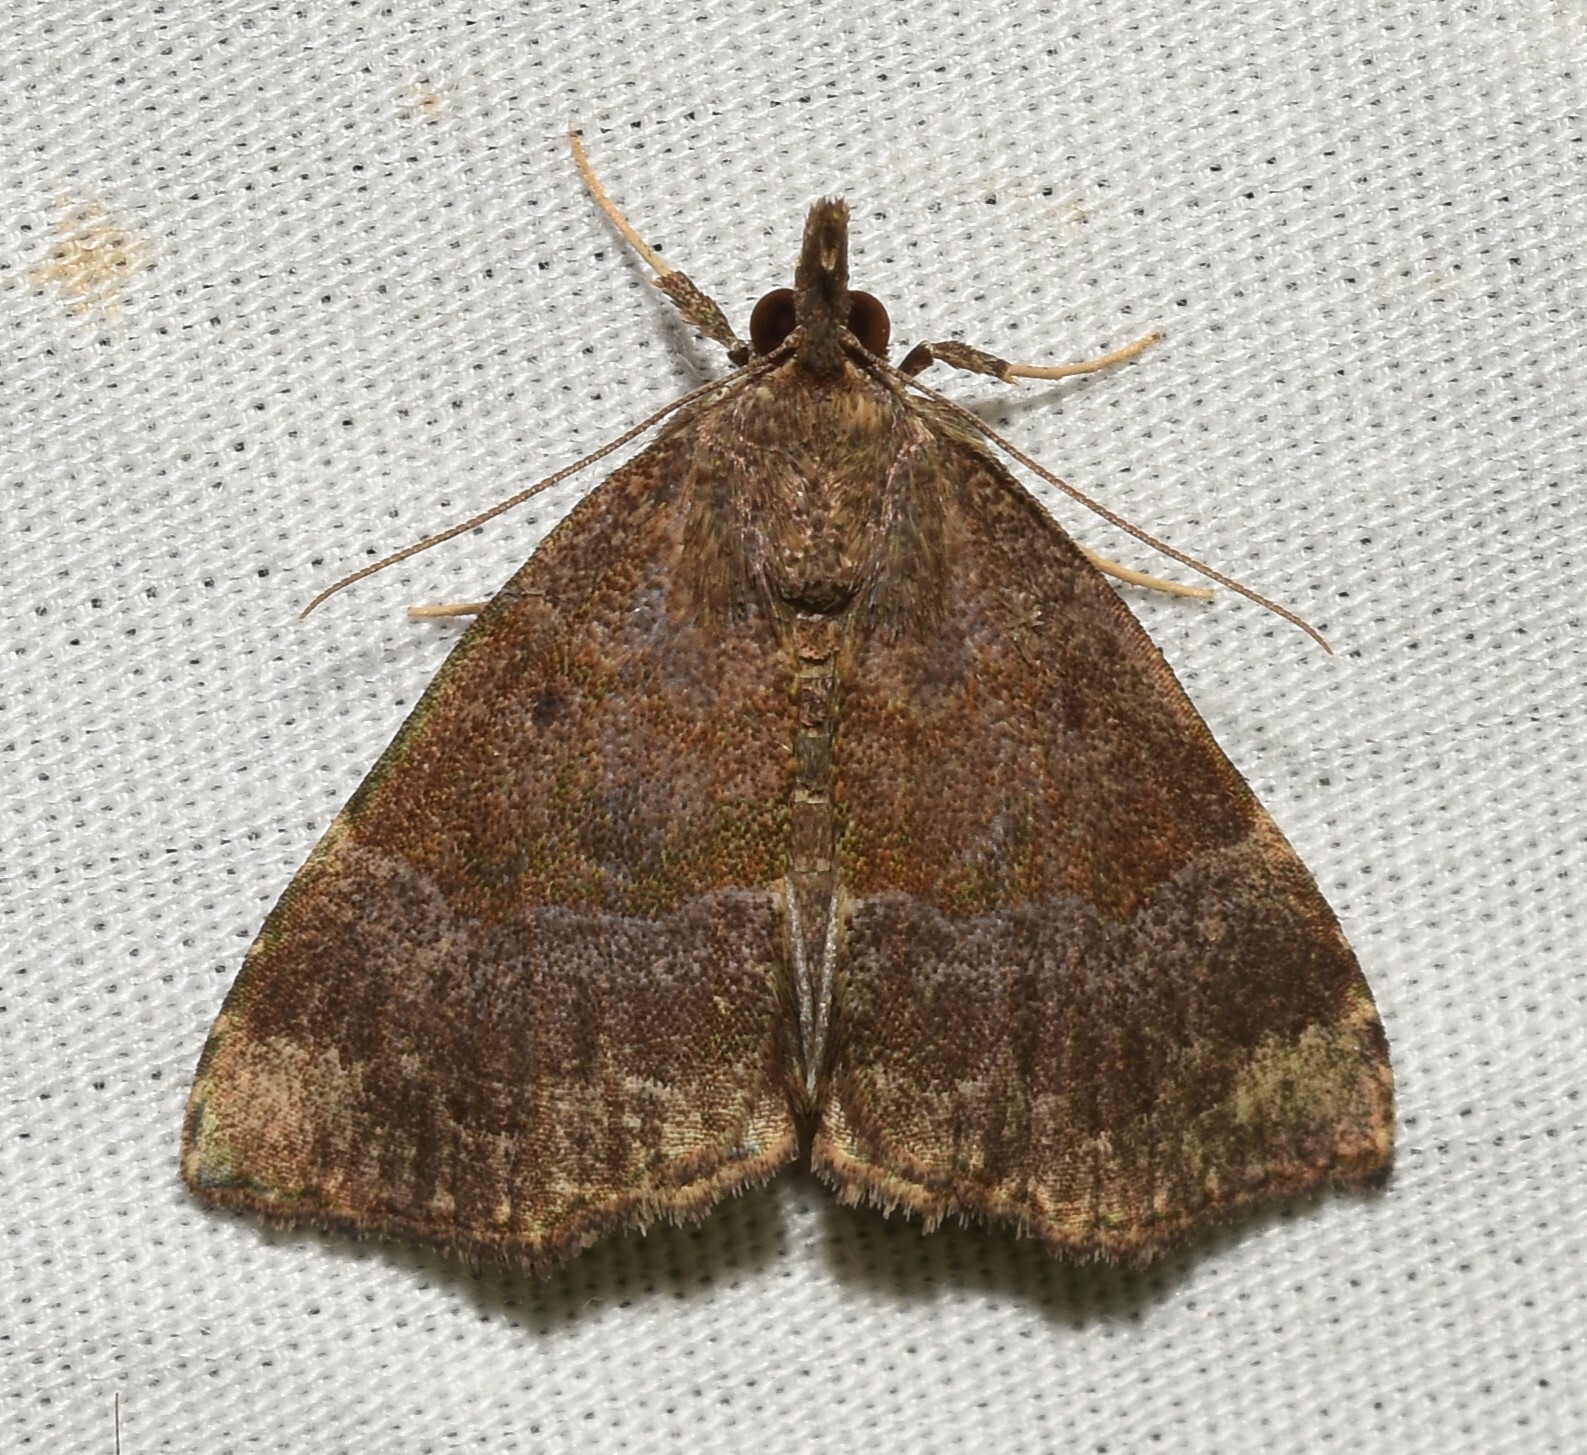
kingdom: Animalia
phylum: Arthropoda
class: Insecta
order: Lepidoptera
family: Erebidae
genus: Hypena
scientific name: Hypena madefactalis
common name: Gray-edged snout
